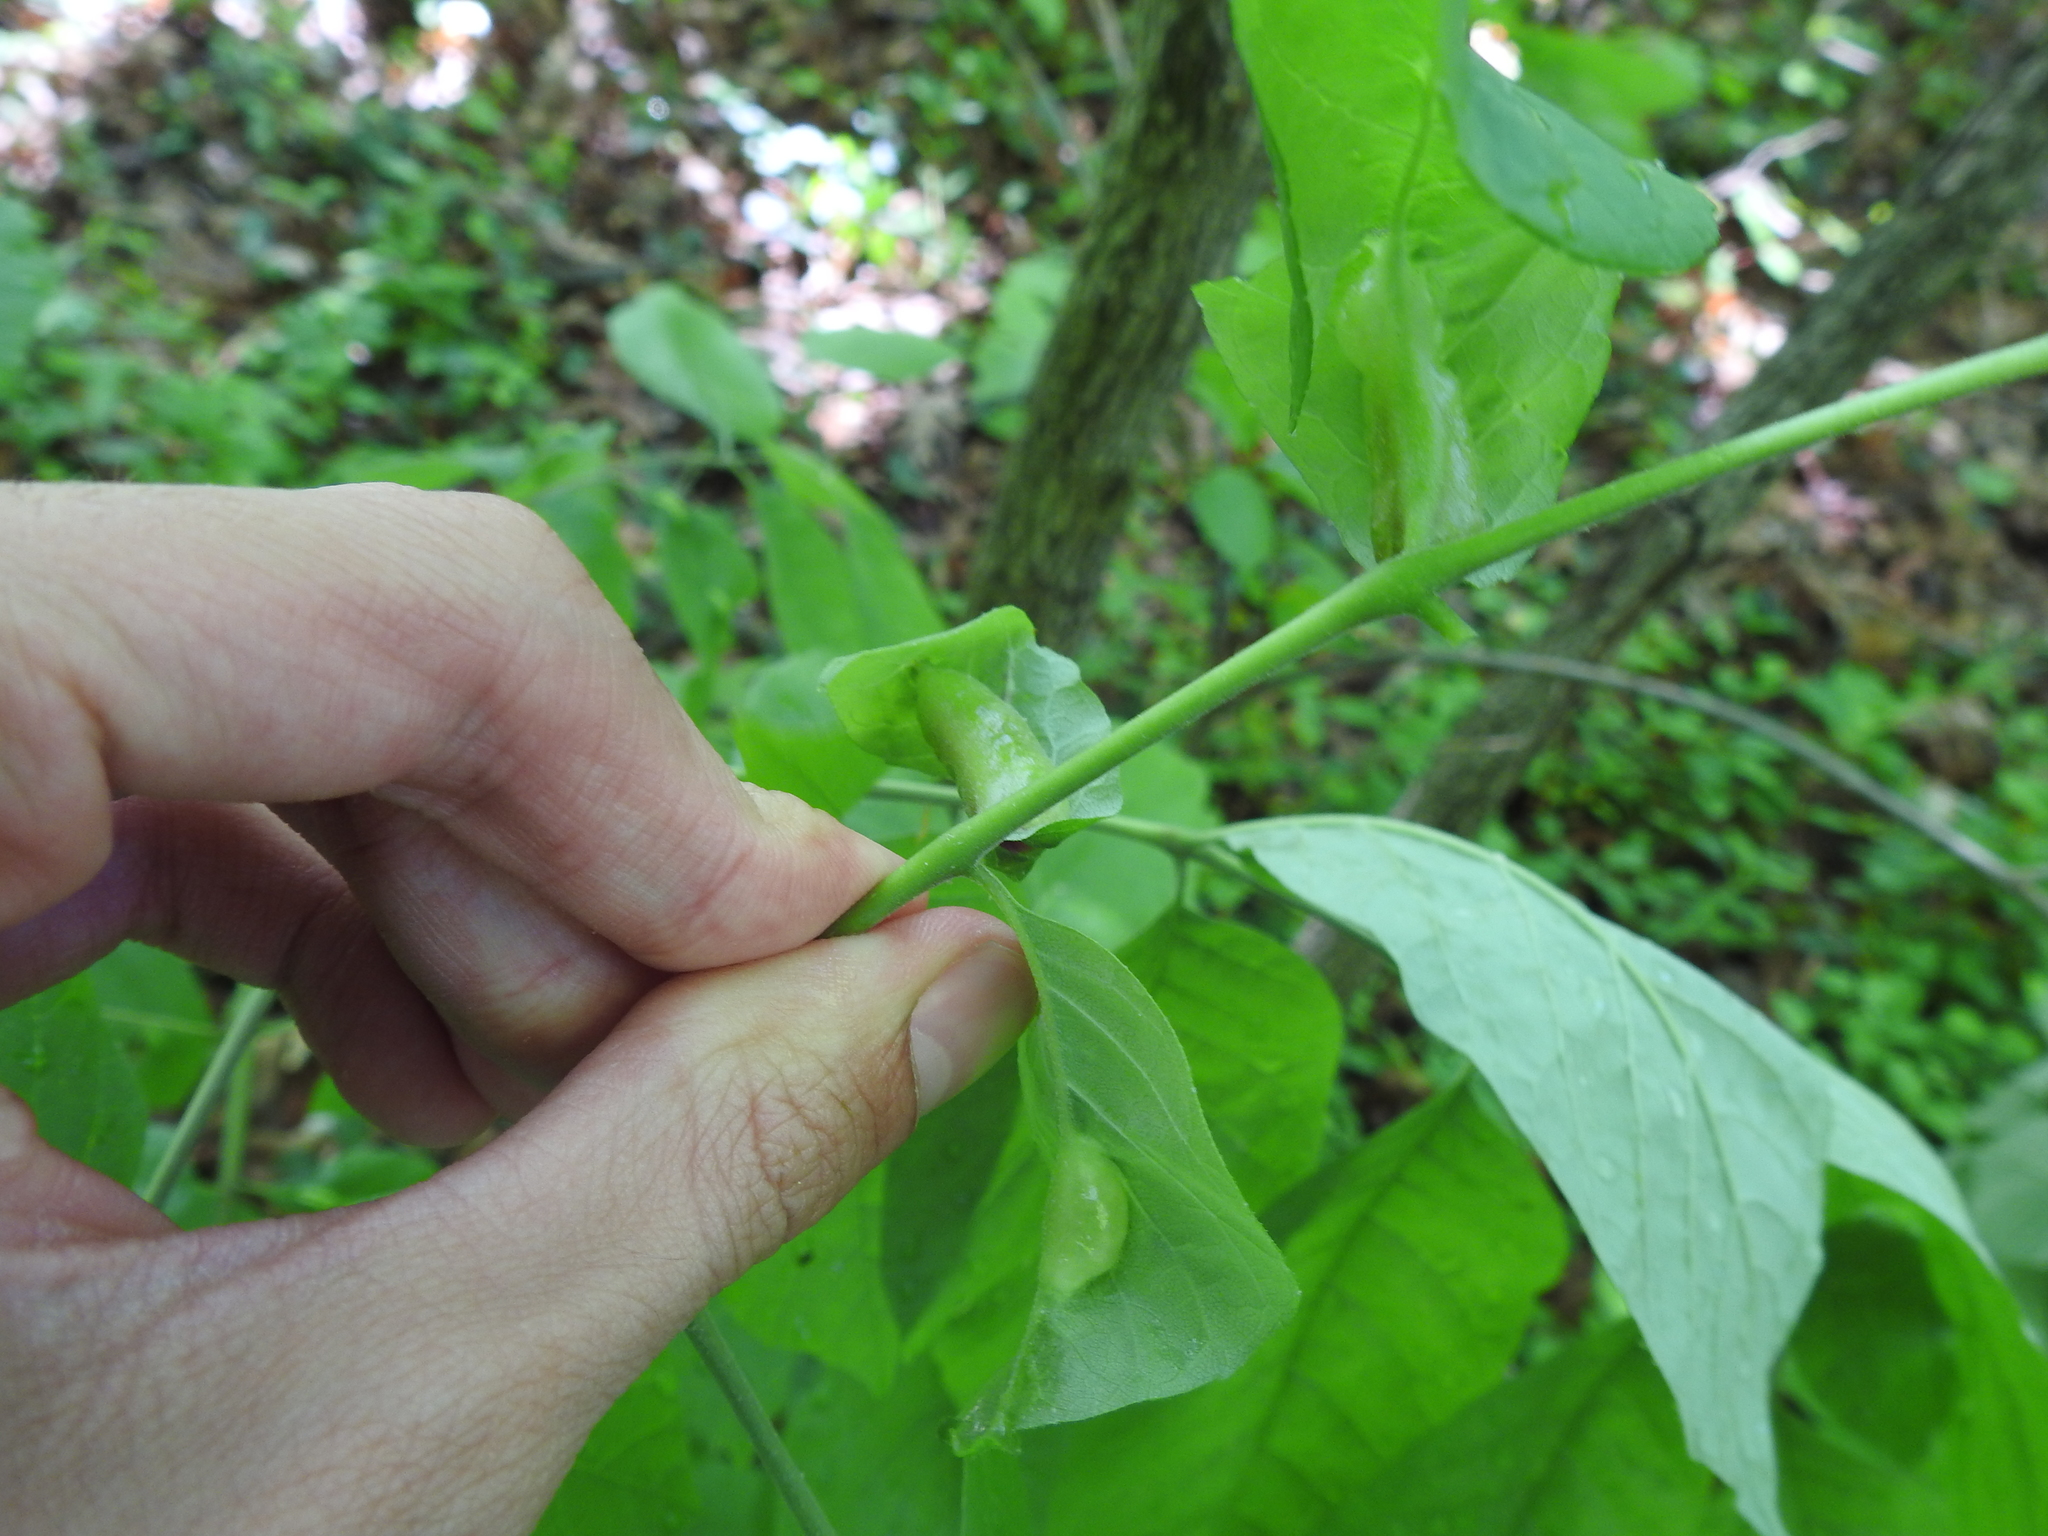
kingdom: Animalia
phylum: Arthropoda
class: Insecta
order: Diptera
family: Cecidomyiidae
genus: Dasineura
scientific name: Dasineura tumidosae
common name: Ash petiole gall midge
